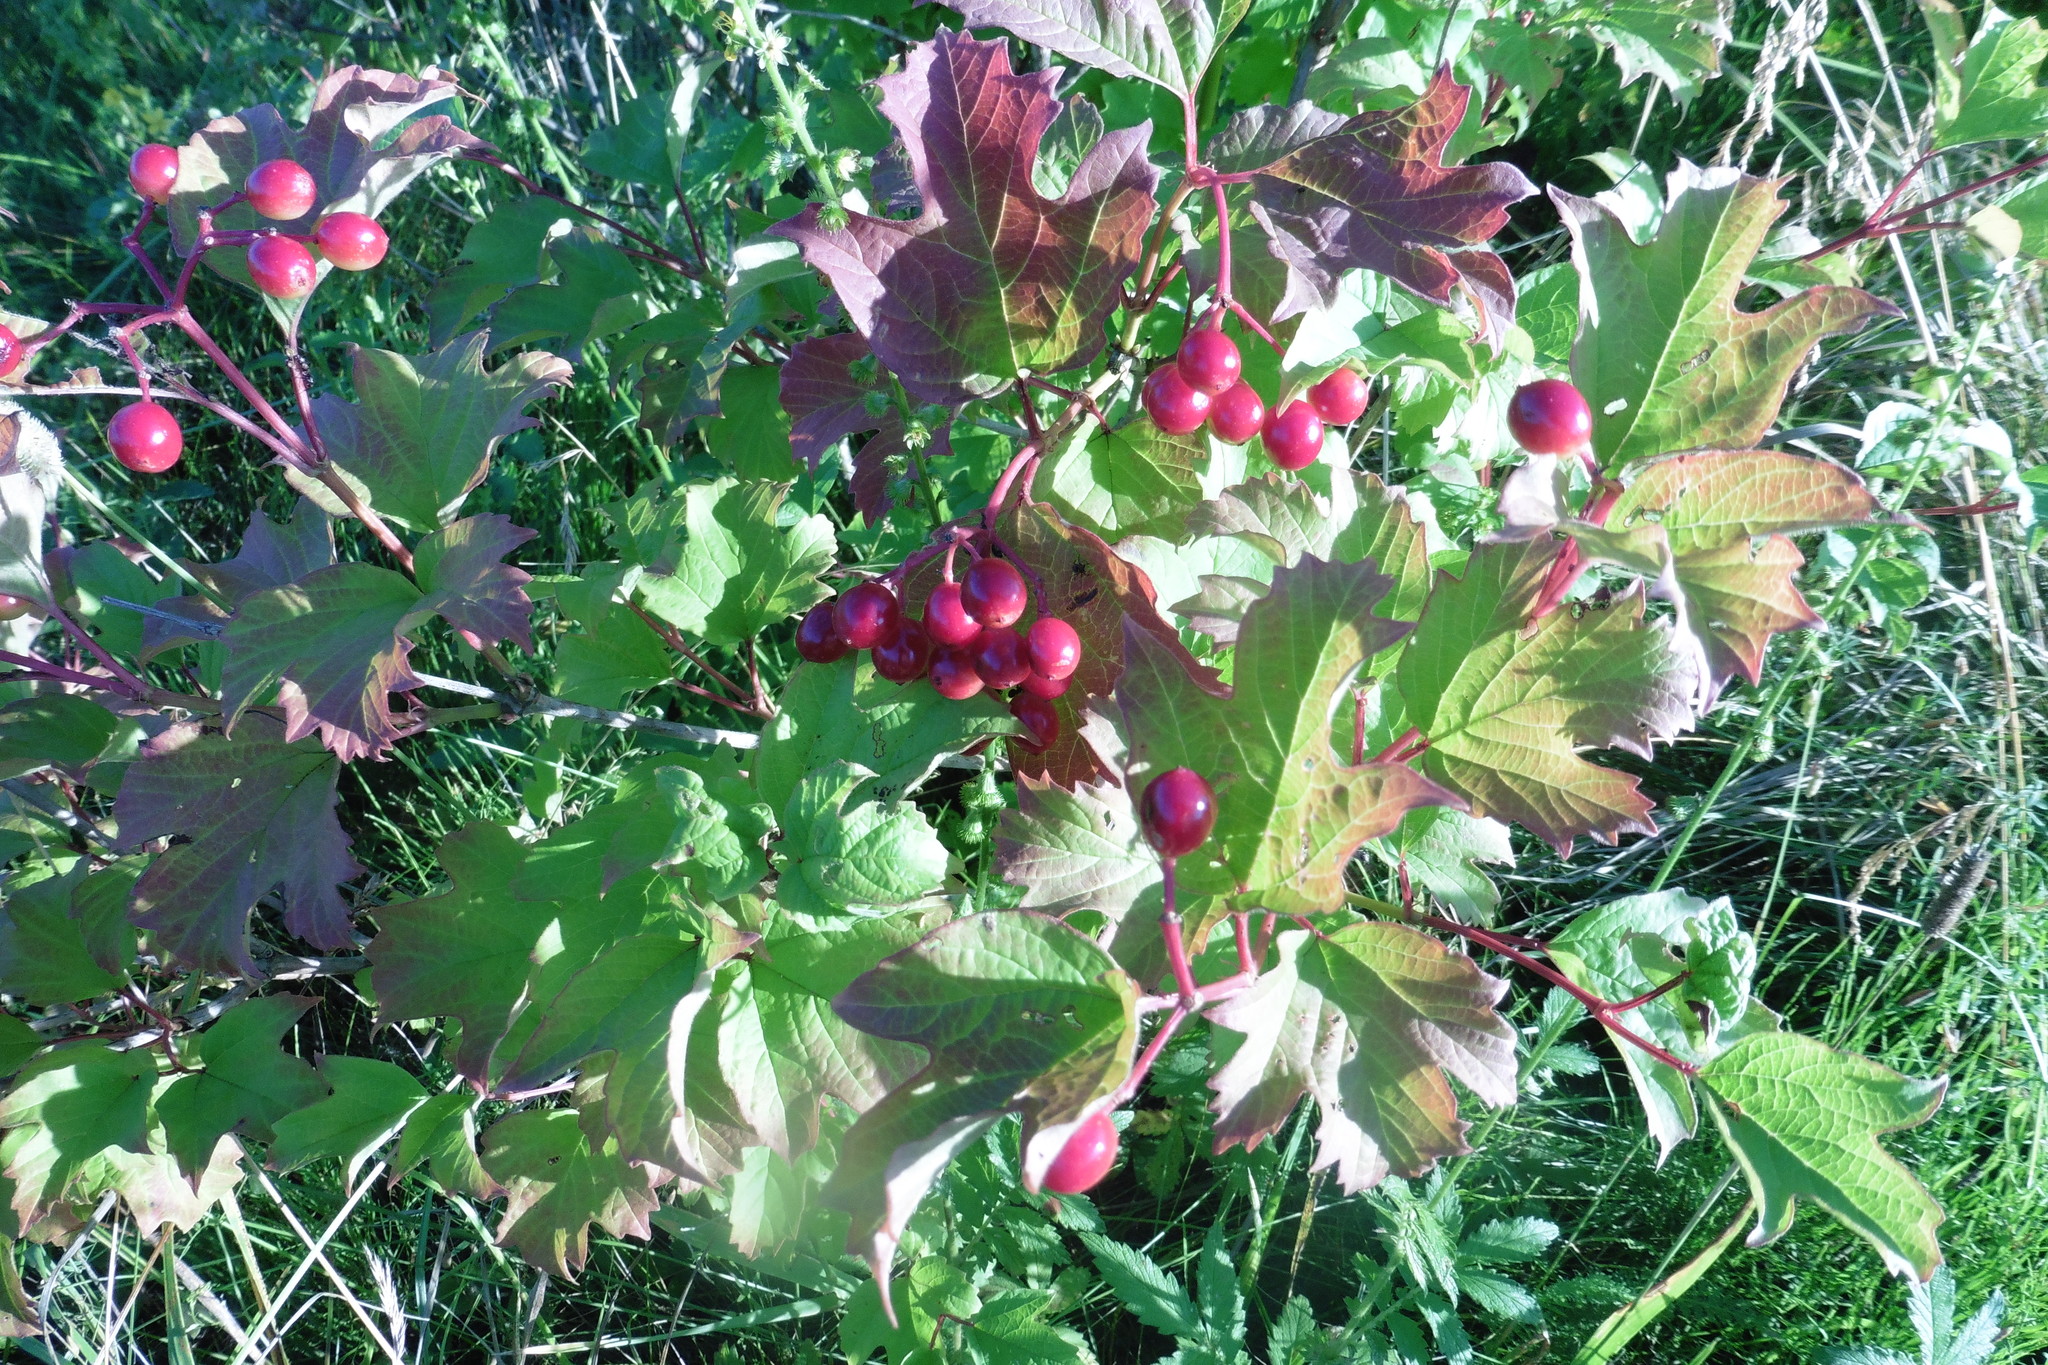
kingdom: Plantae
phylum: Tracheophyta
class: Magnoliopsida
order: Dipsacales
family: Viburnaceae
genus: Viburnum
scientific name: Viburnum opulus
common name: Guelder-rose
